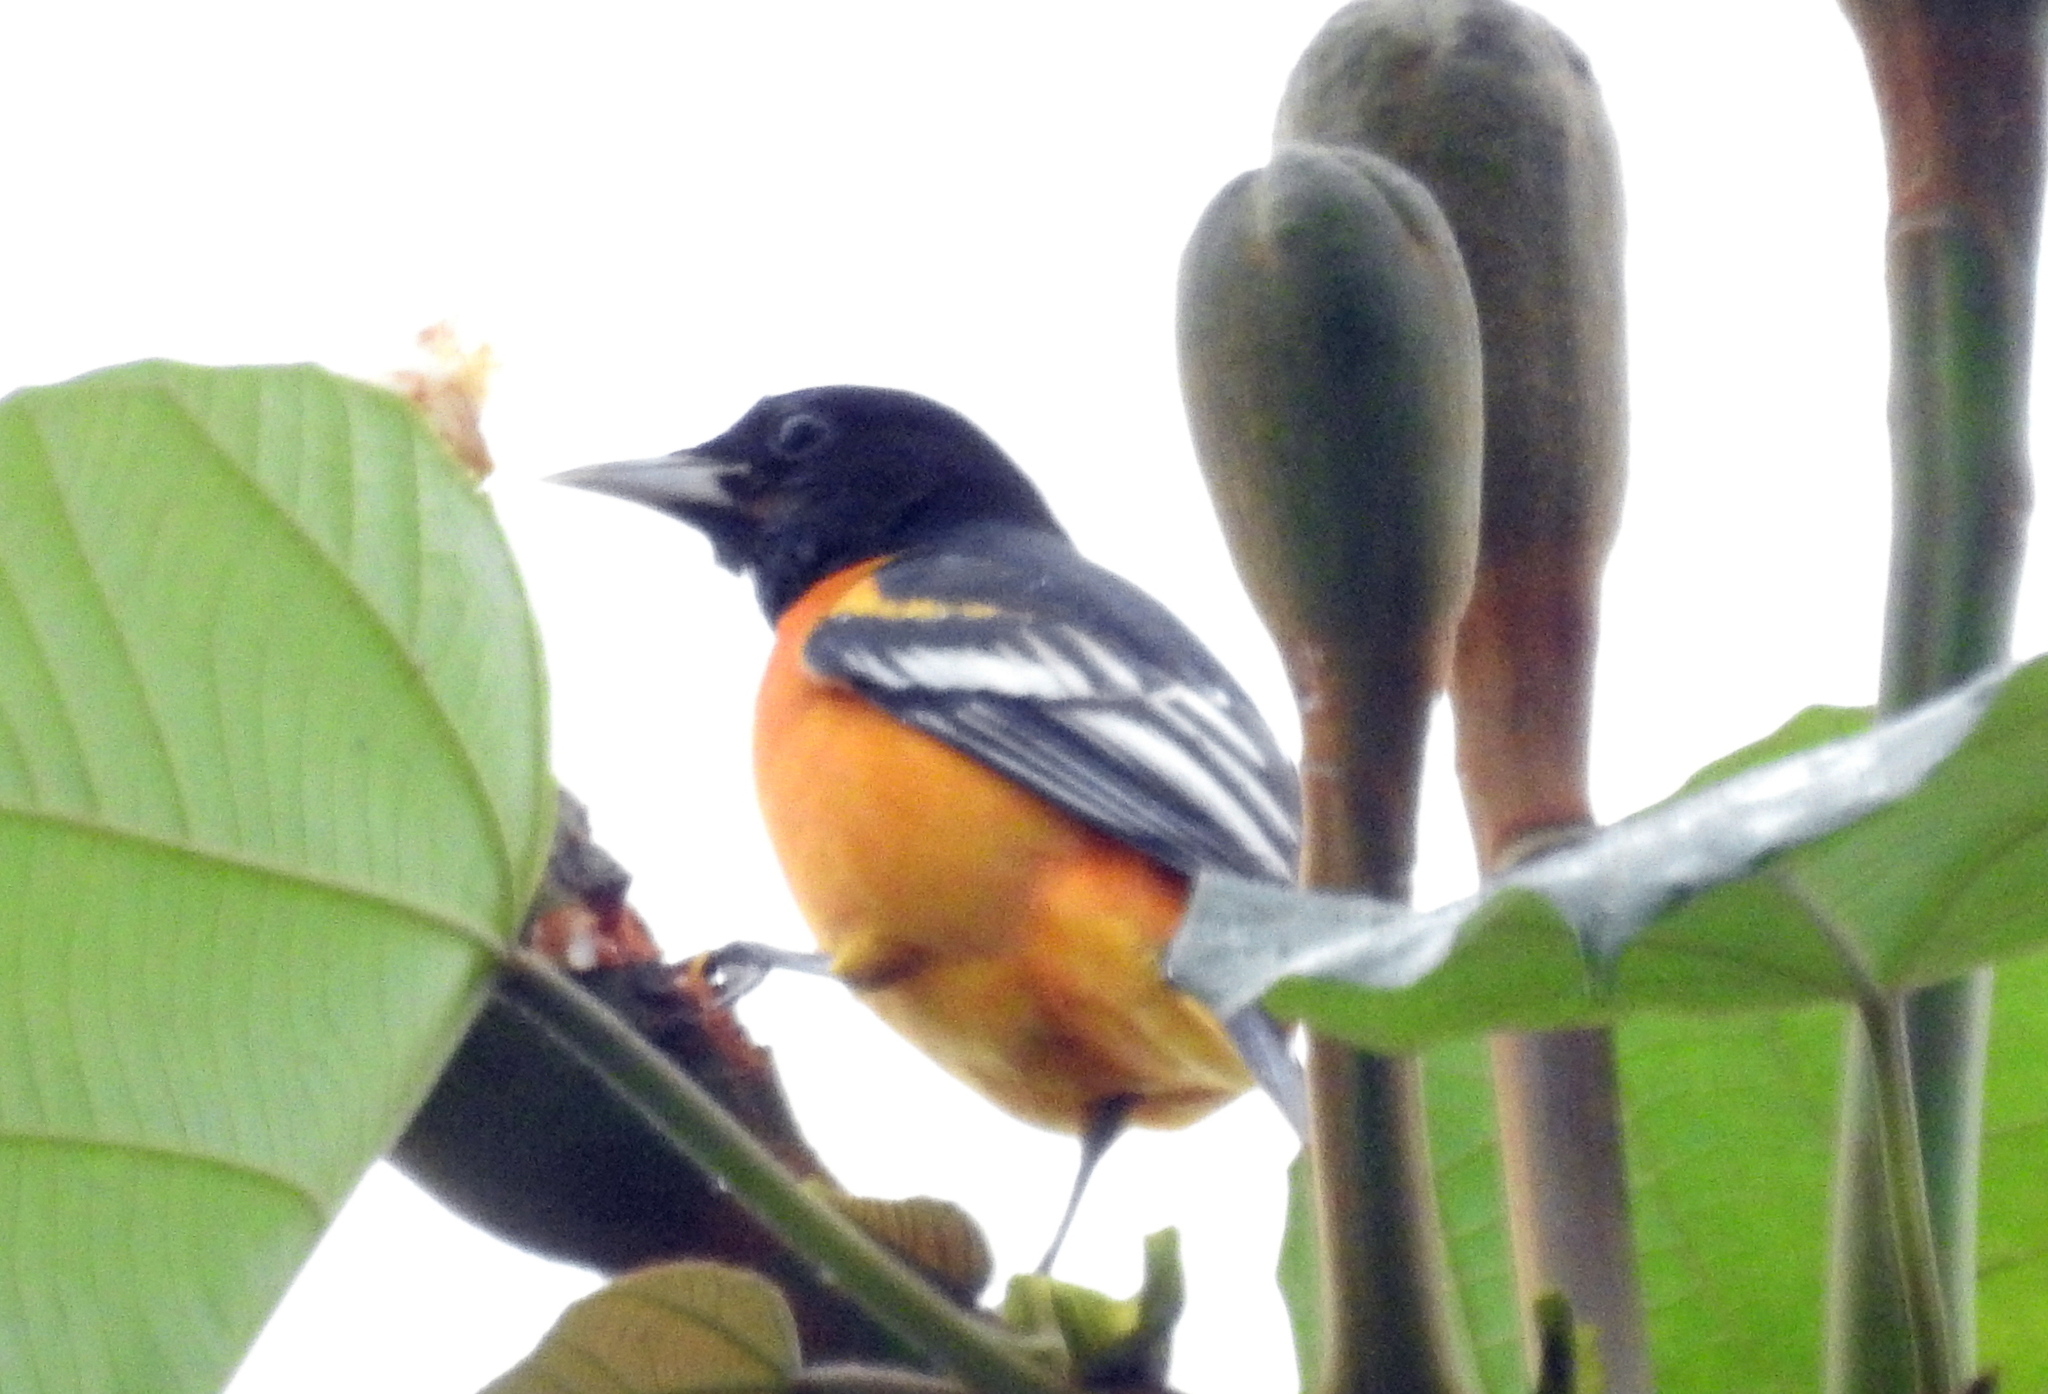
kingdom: Animalia
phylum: Chordata
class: Aves
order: Passeriformes
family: Icteridae
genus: Icterus
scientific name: Icterus galbula
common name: Baltimore oriole
